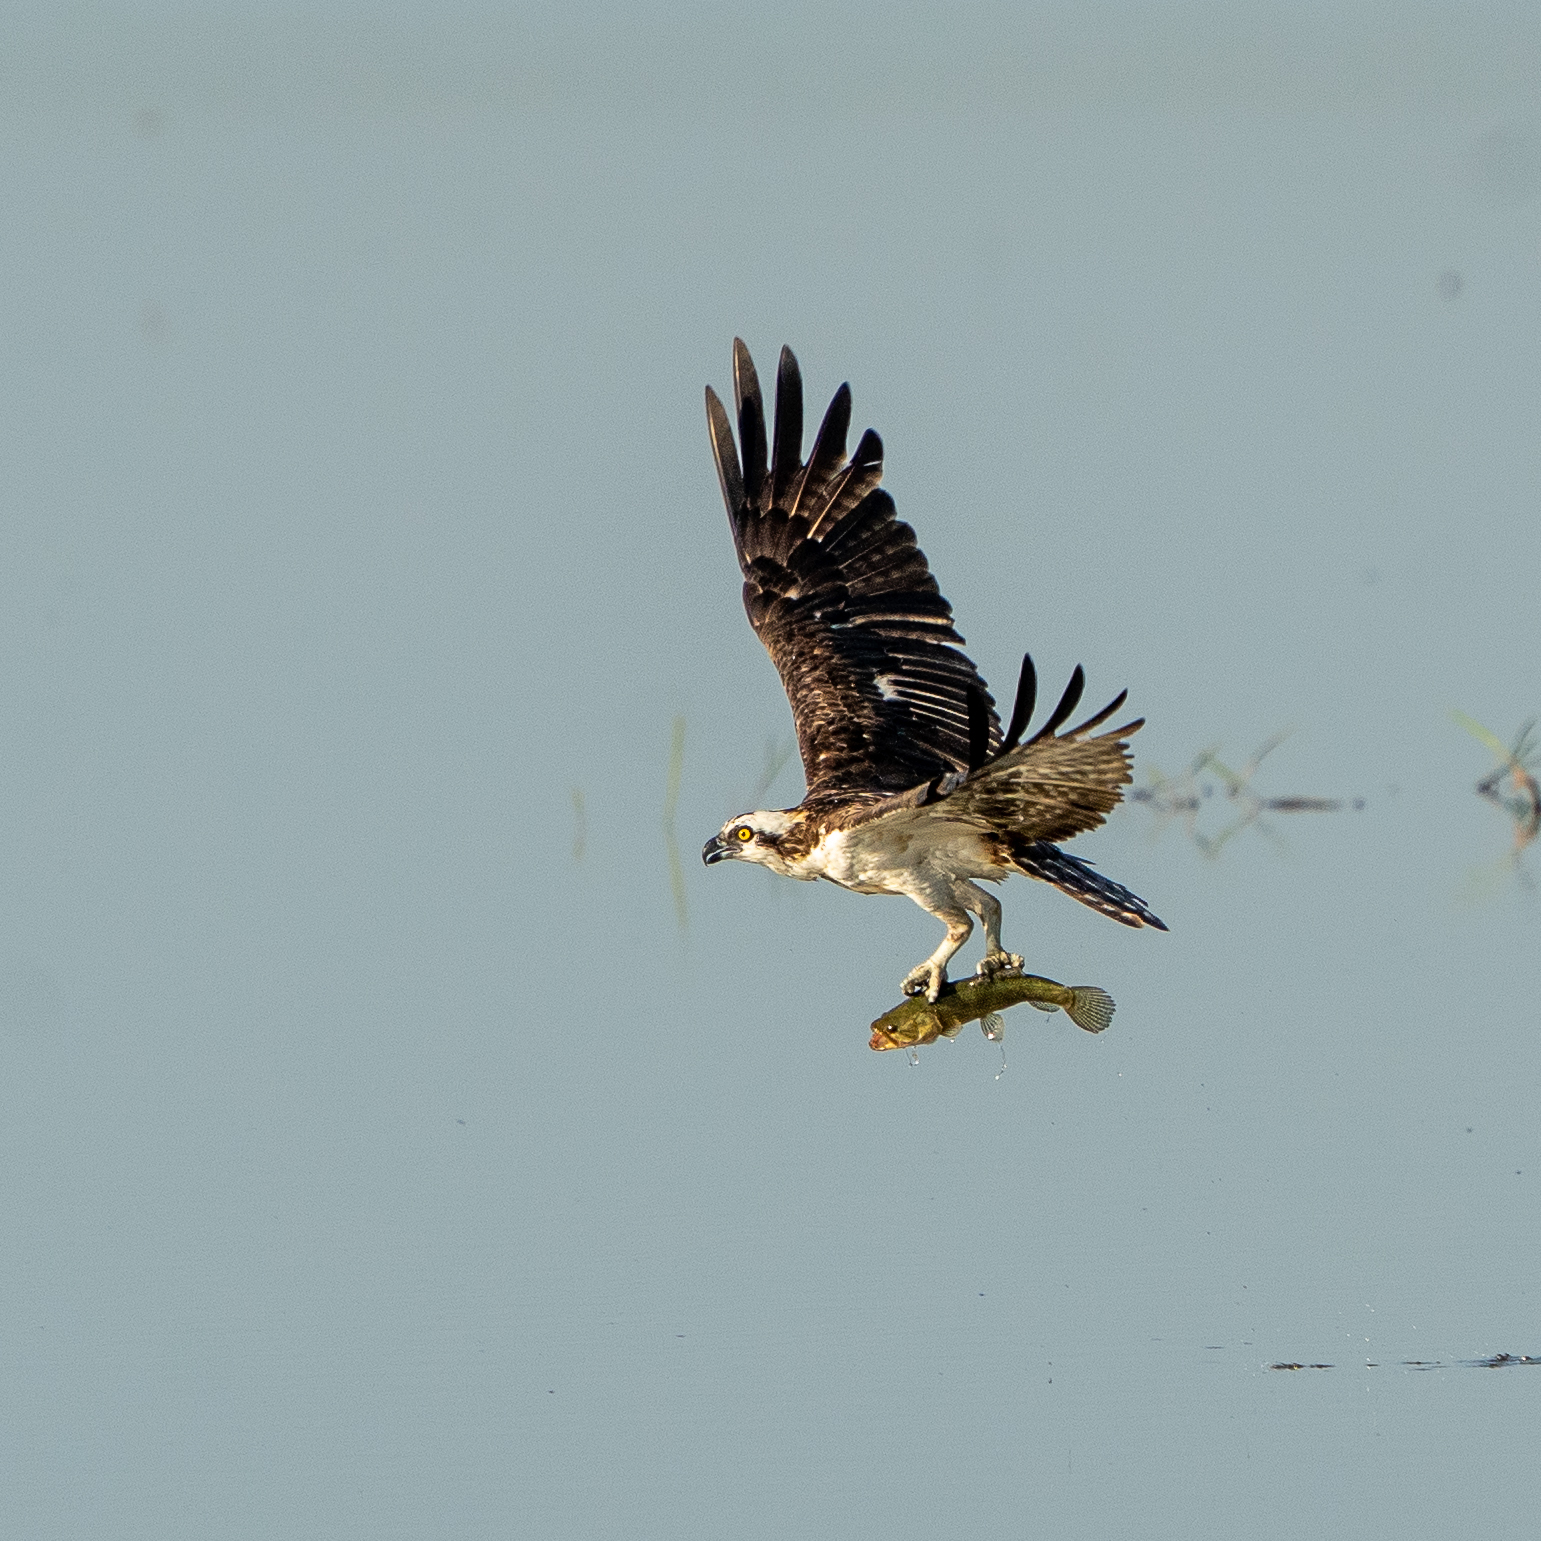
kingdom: Animalia
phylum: Chordata
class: Aves
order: Accipitriformes
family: Pandionidae
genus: Pandion
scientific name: Pandion haliaetus
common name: Osprey
